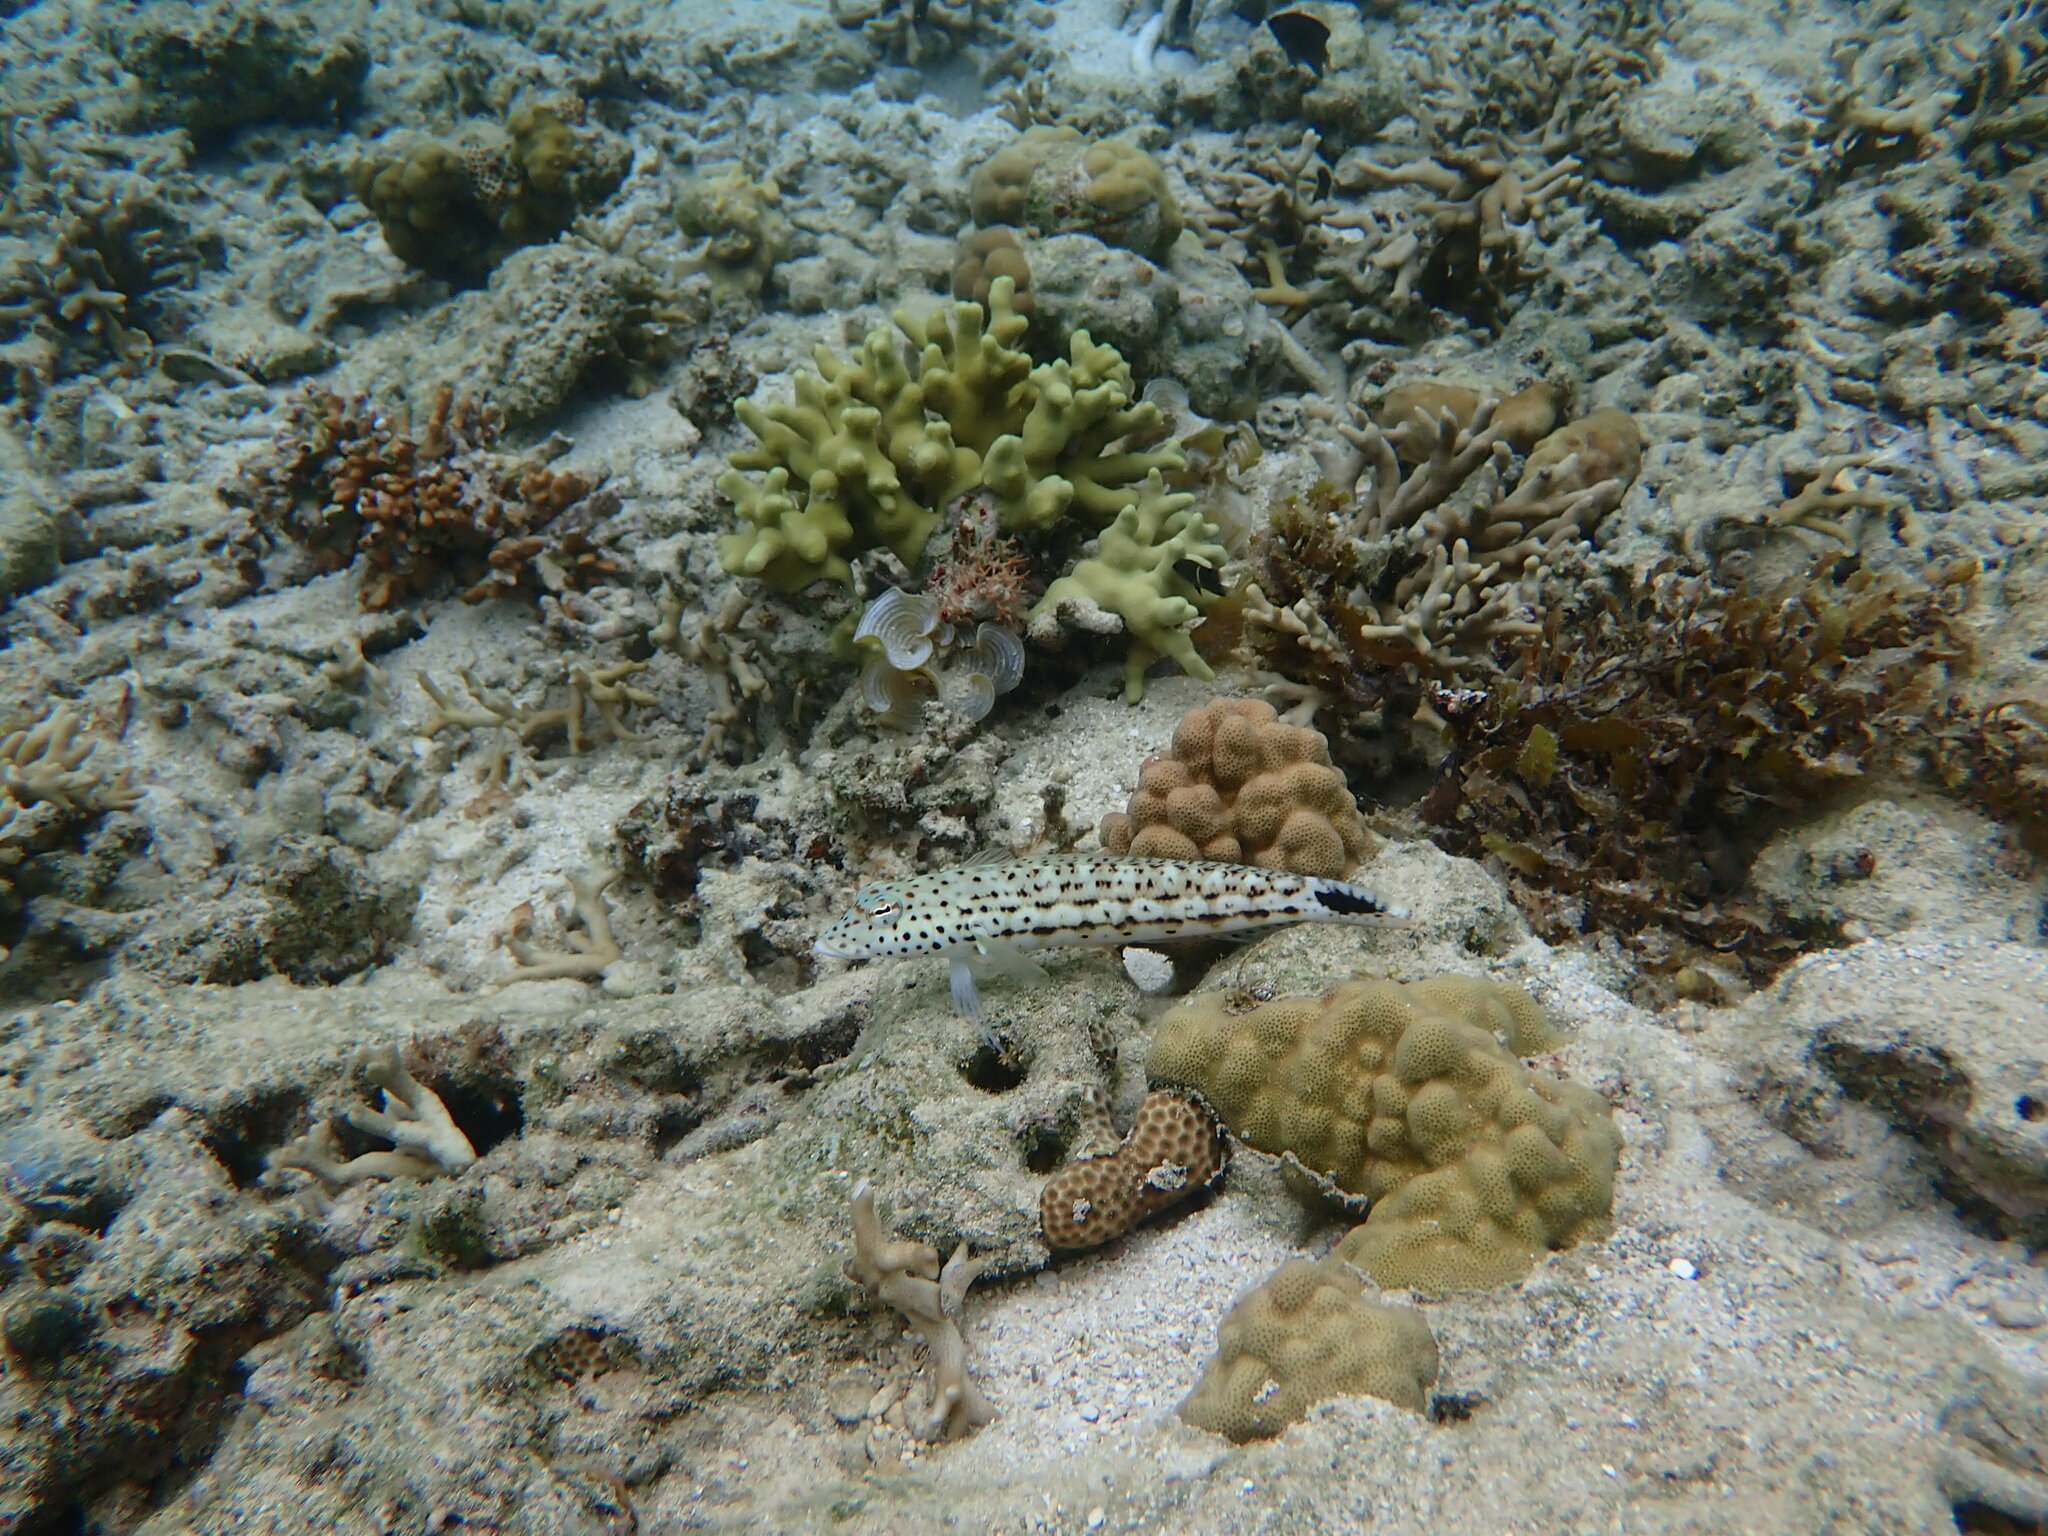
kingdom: Animalia
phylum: Chordata
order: Perciformes
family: Pinguipedidae
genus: Parapercis
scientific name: Parapercis xanthogramma
